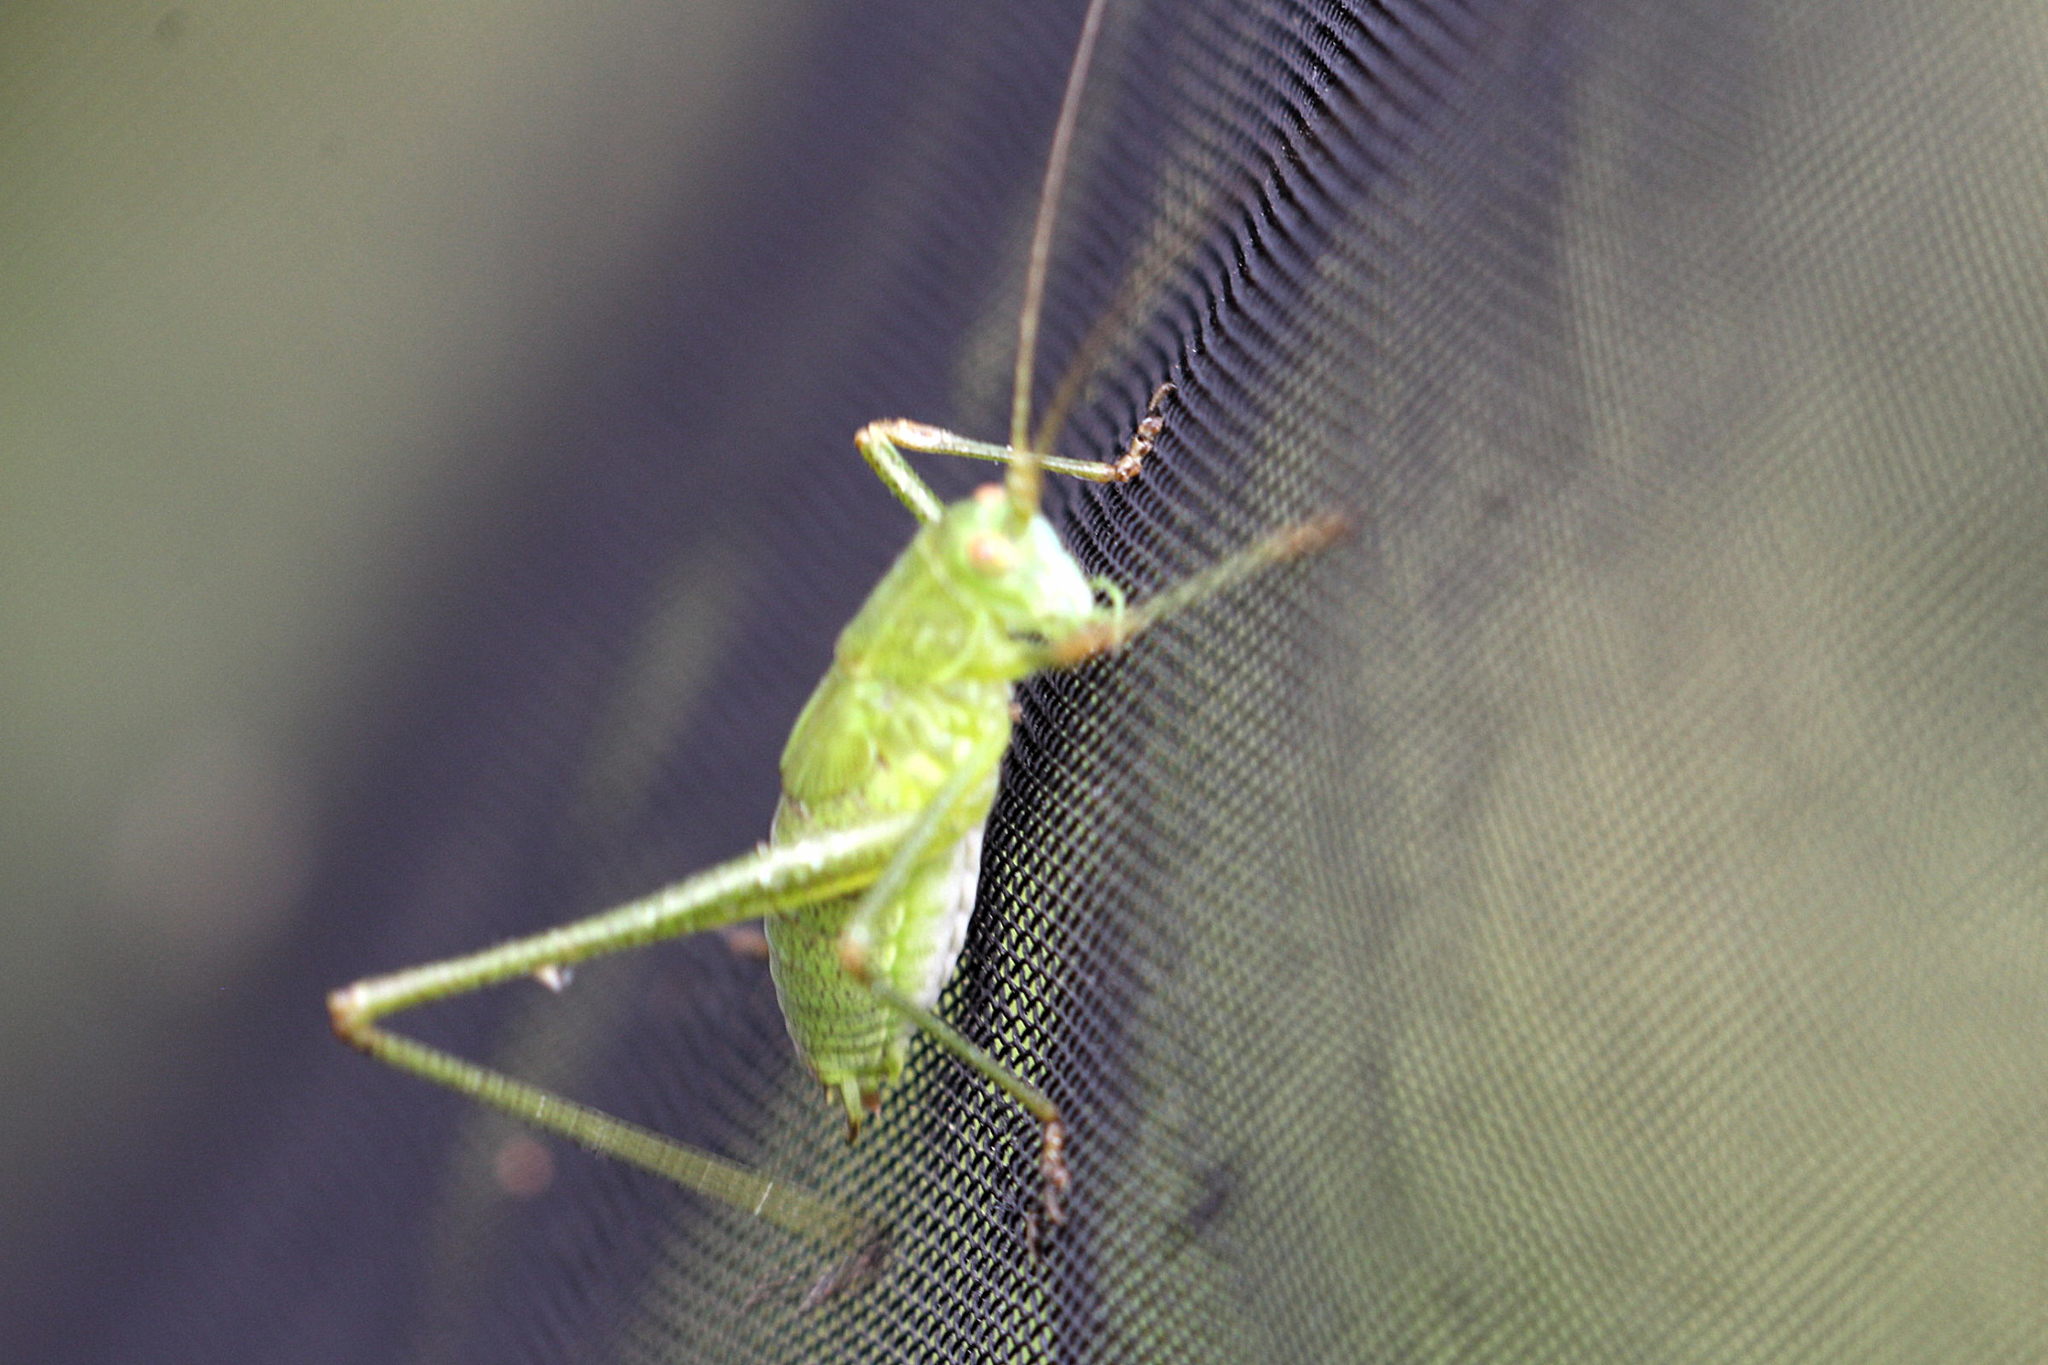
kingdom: Animalia
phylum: Arthropoda
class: Insecta
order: Orthoptera
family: Tettigoniidae
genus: Phaneroptera
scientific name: Phaneroptera falcata
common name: Sickle-bearing bush-cricket
